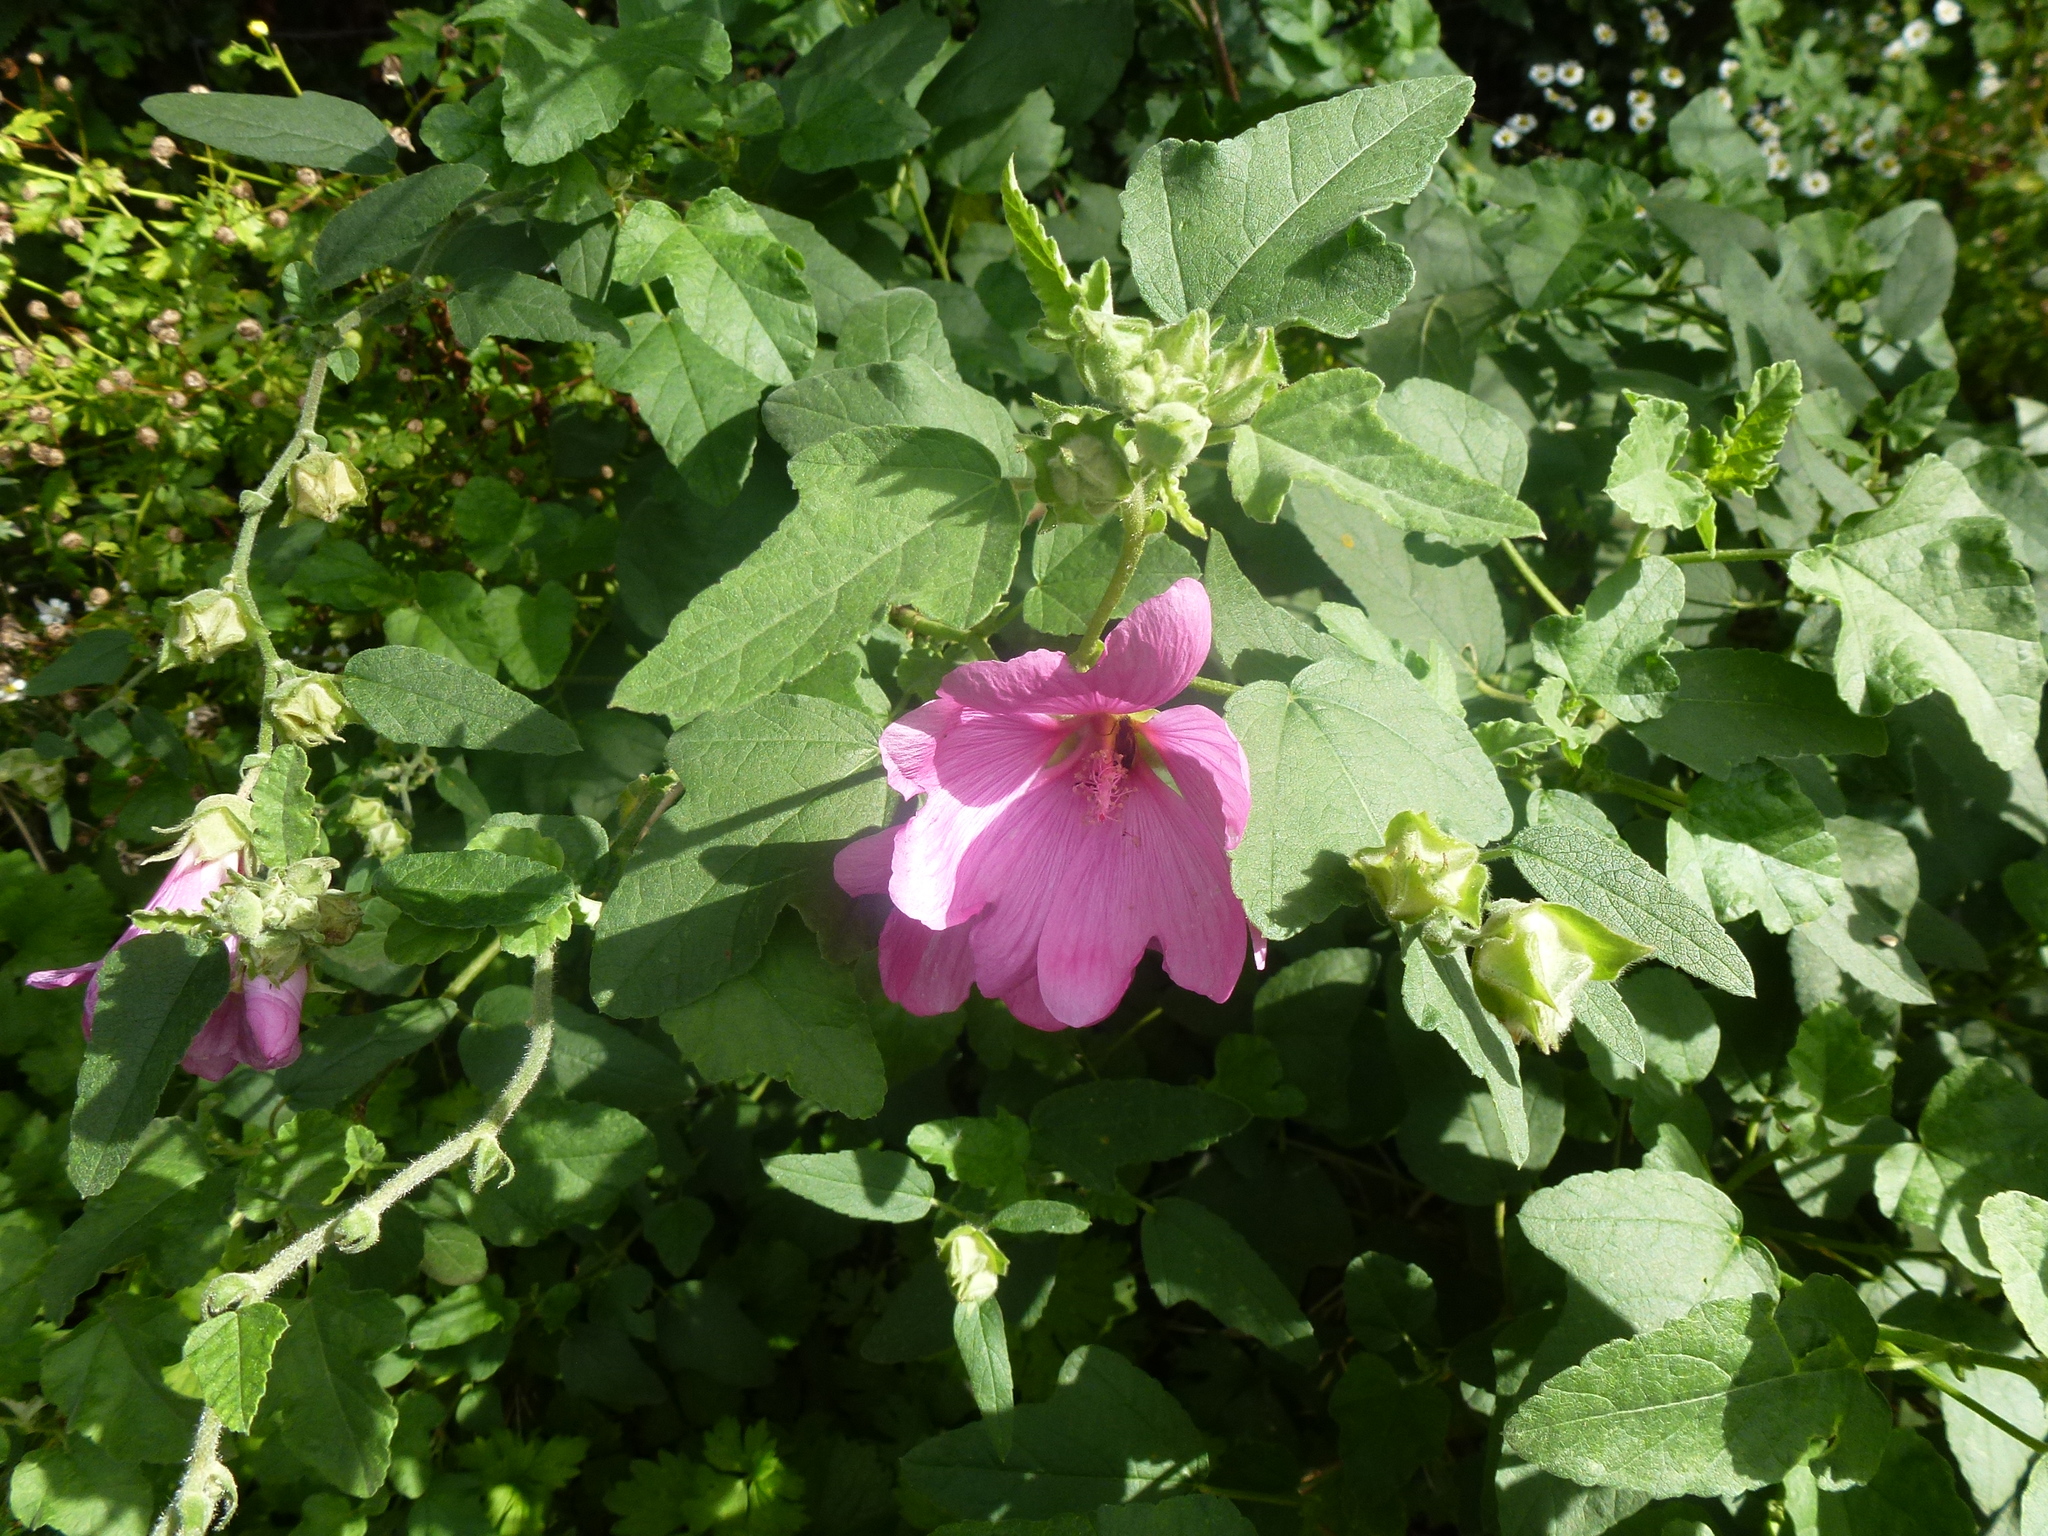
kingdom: Plantae
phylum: Tracheophyta
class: Magnoliopsida
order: Malvales
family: Malvaceae
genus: Malva
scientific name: Malva clementii
